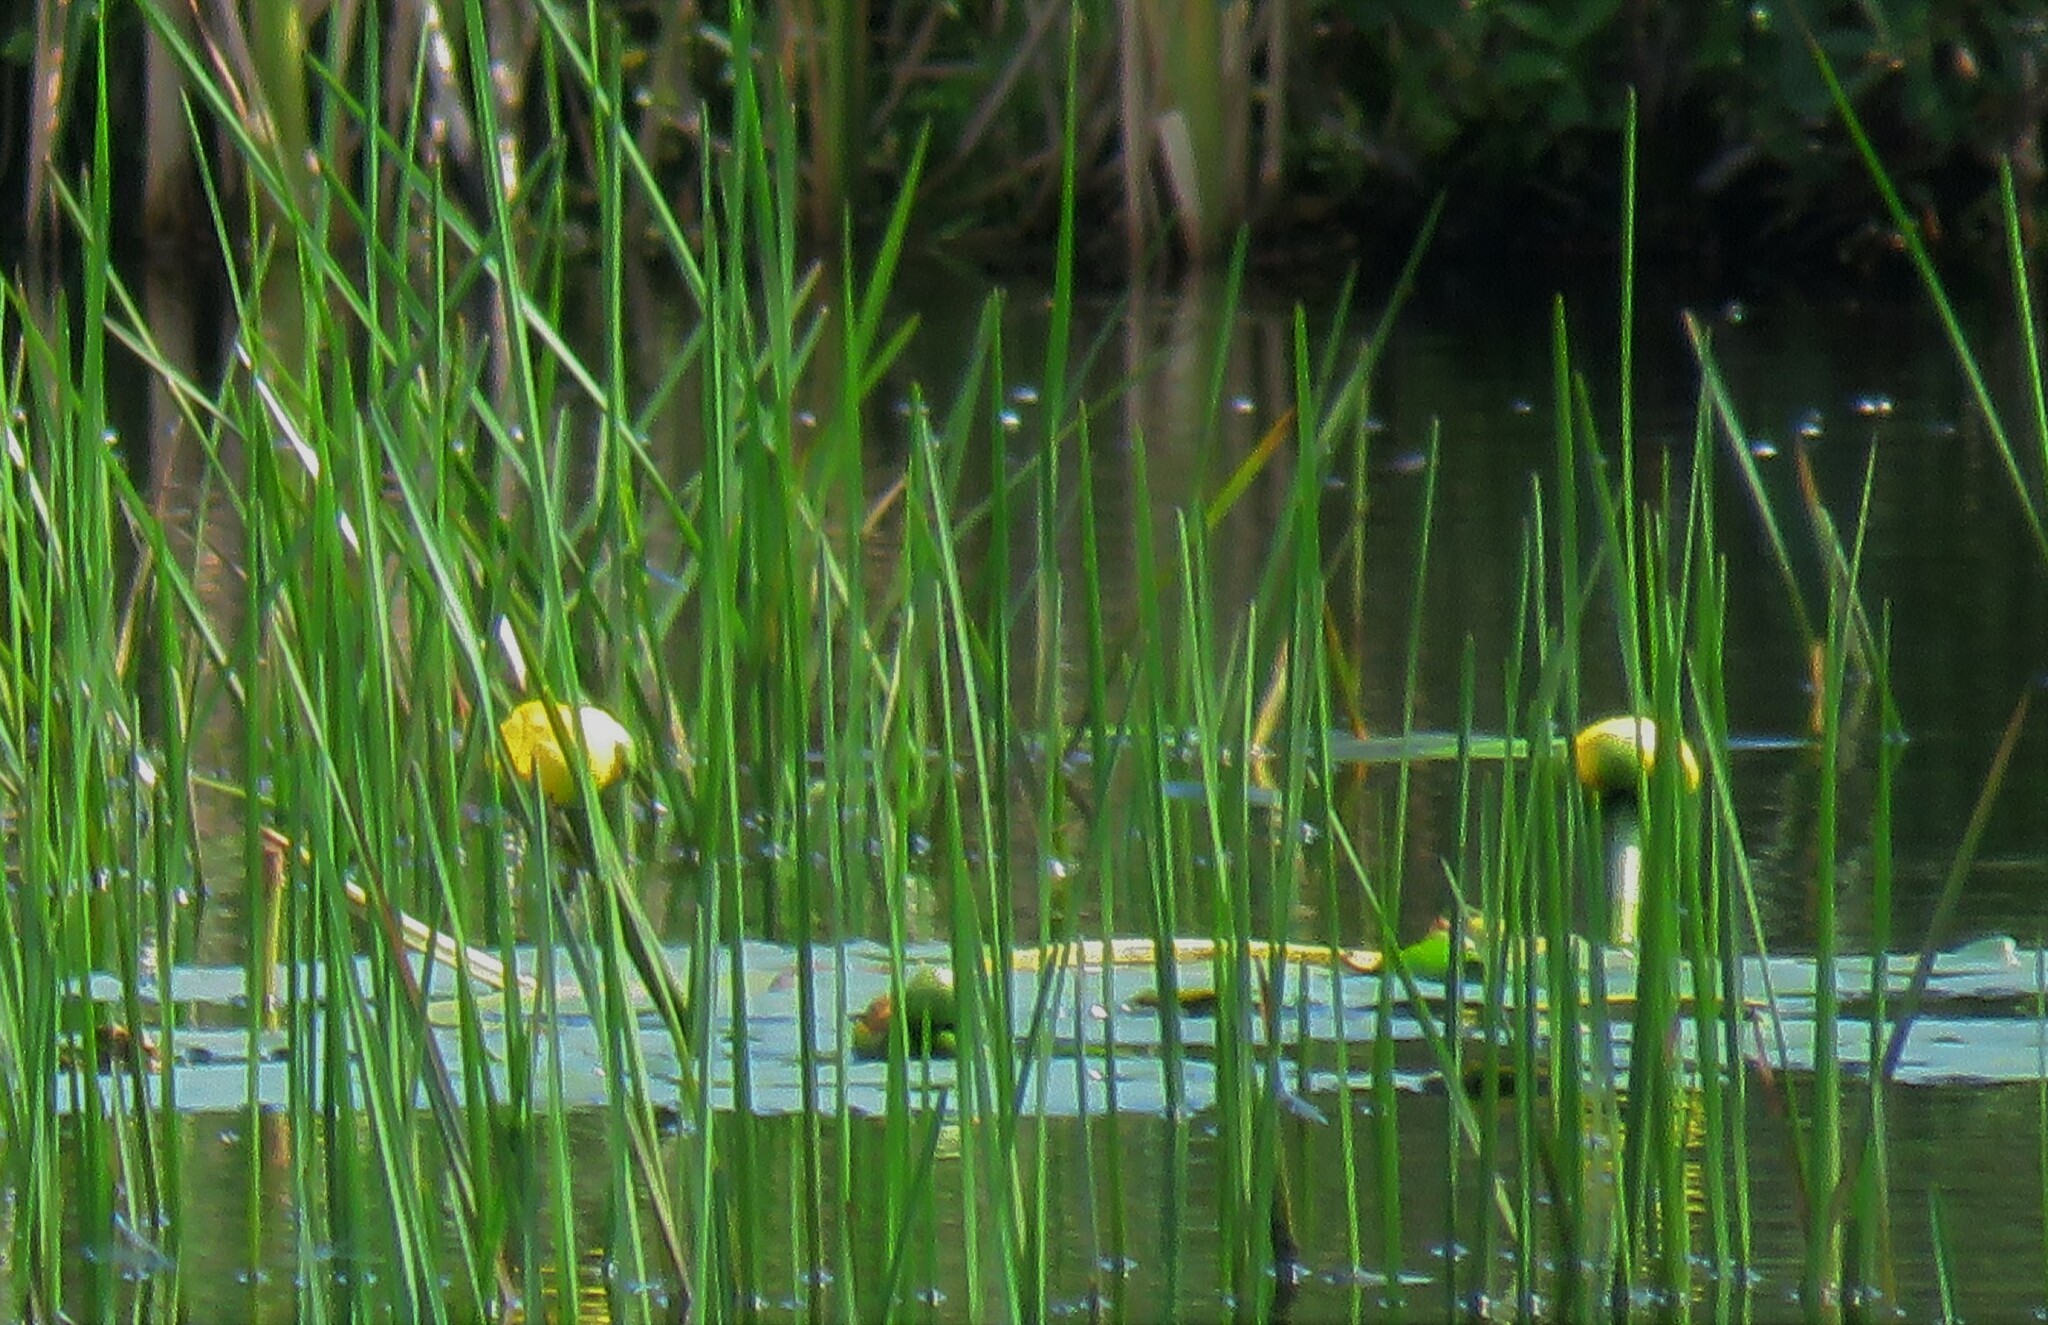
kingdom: Plantae
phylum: Tracheophyta
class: Magnoliopsida
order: Nymphaeales
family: Nymphaeaceae
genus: Nuphar
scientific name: Nuphar variegata
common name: Beaver-root
